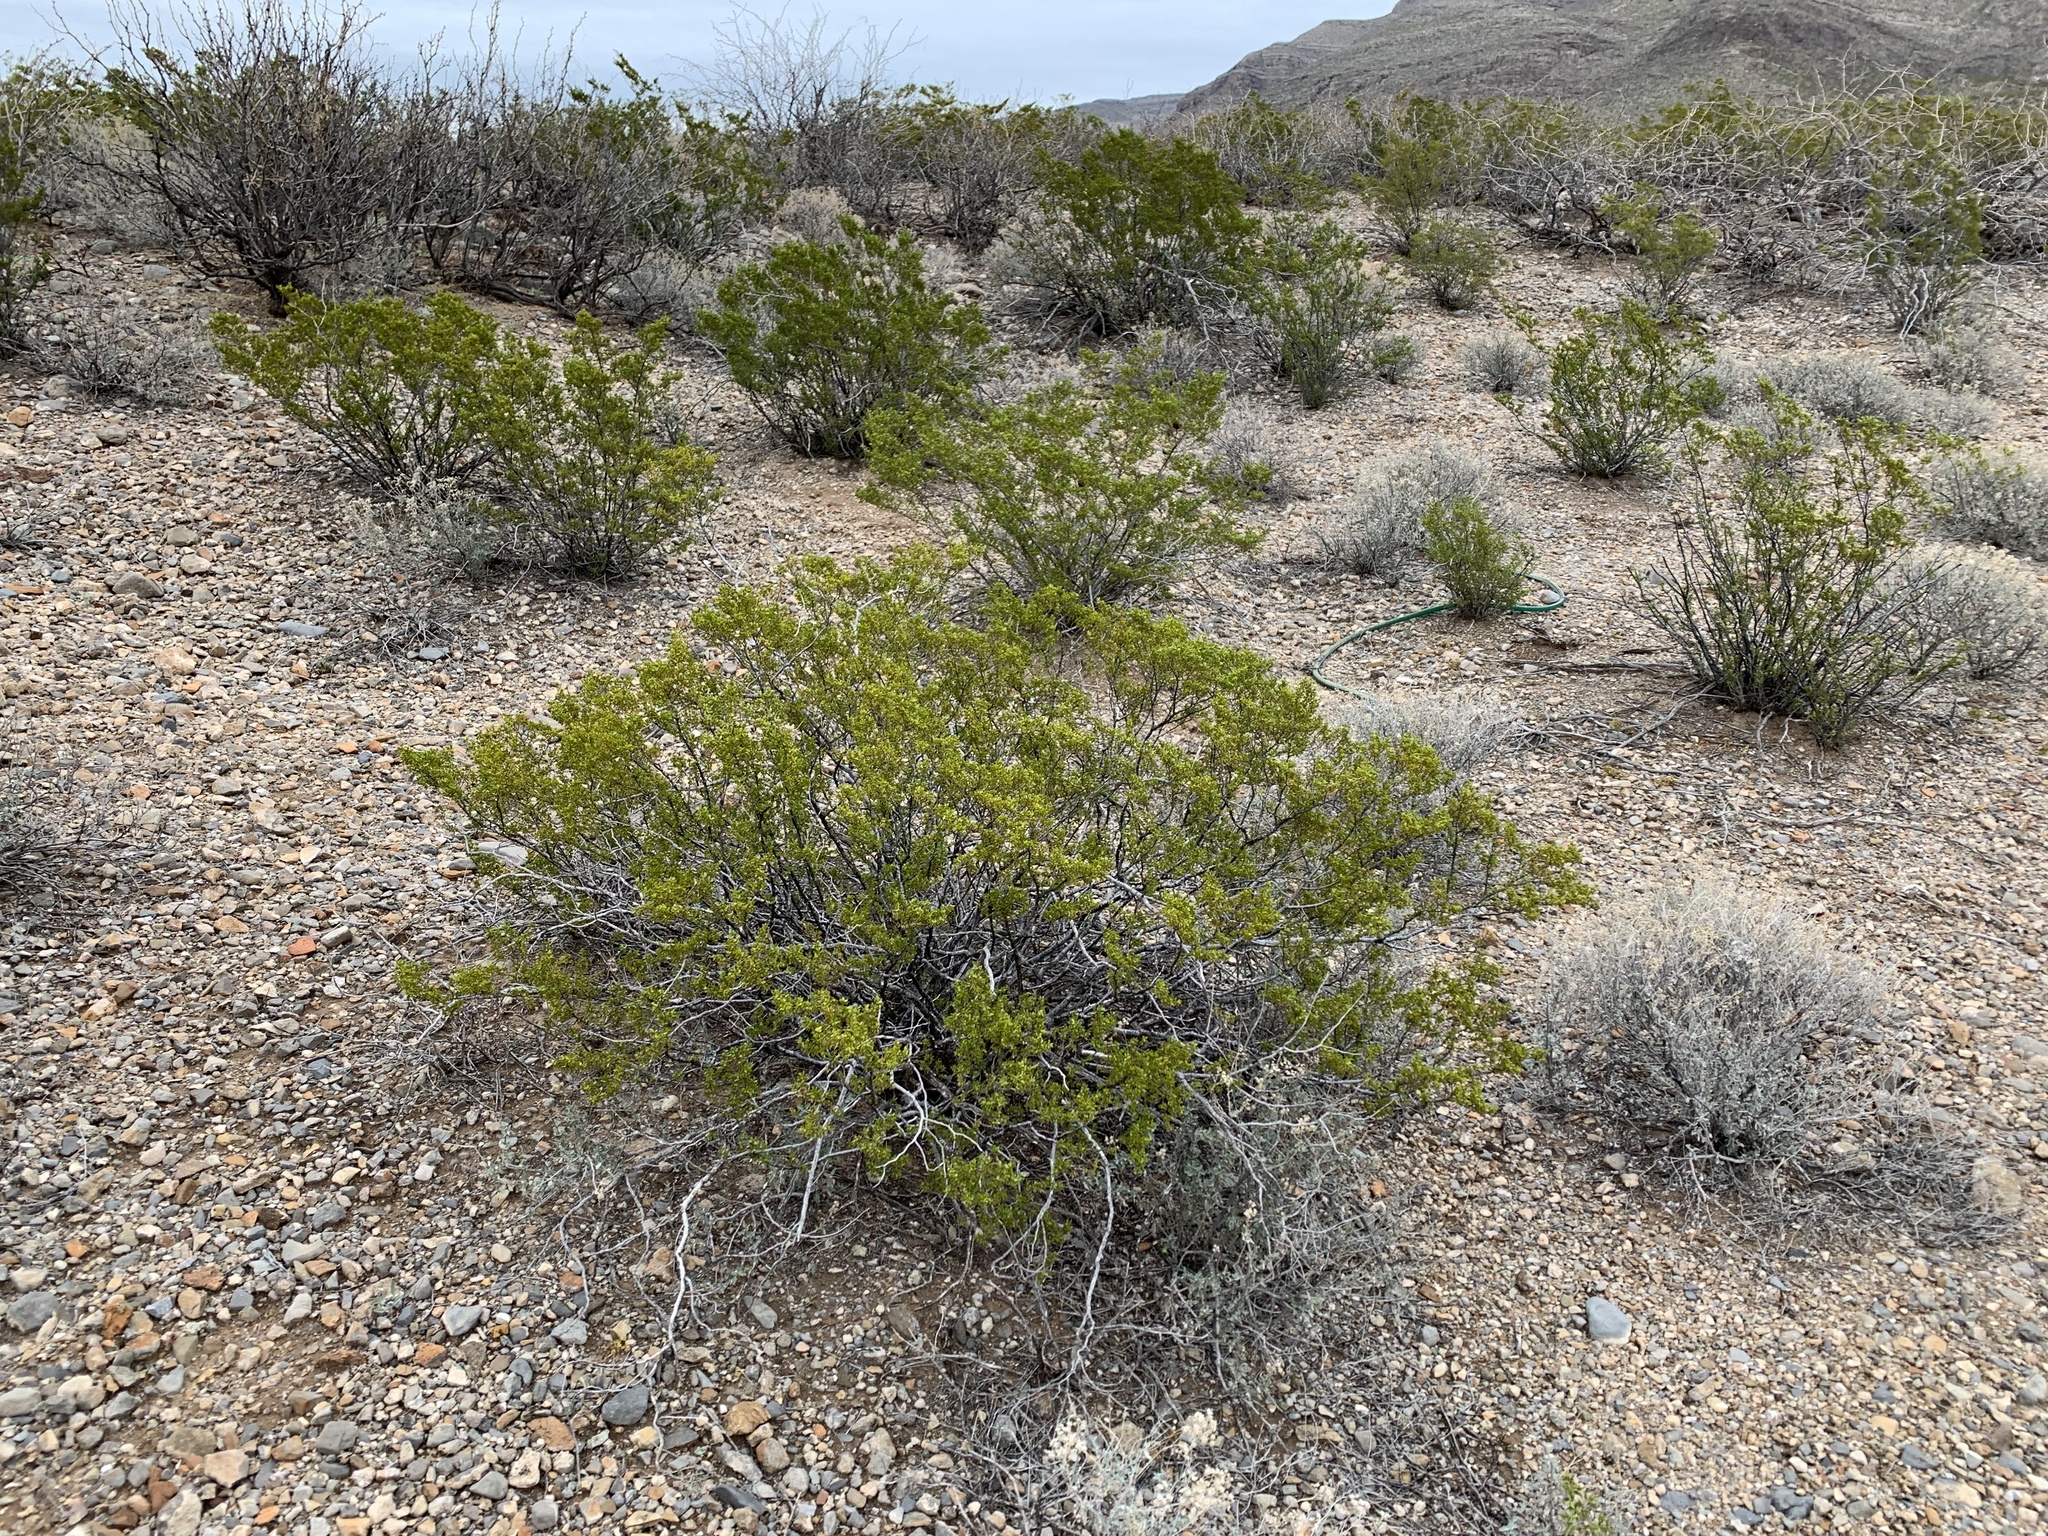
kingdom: Plantae
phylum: Tracheophyta
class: Magnoliopsida
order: Zygophyllales
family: Zygophyllaceae
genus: Larrea
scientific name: Larrea tridentata
